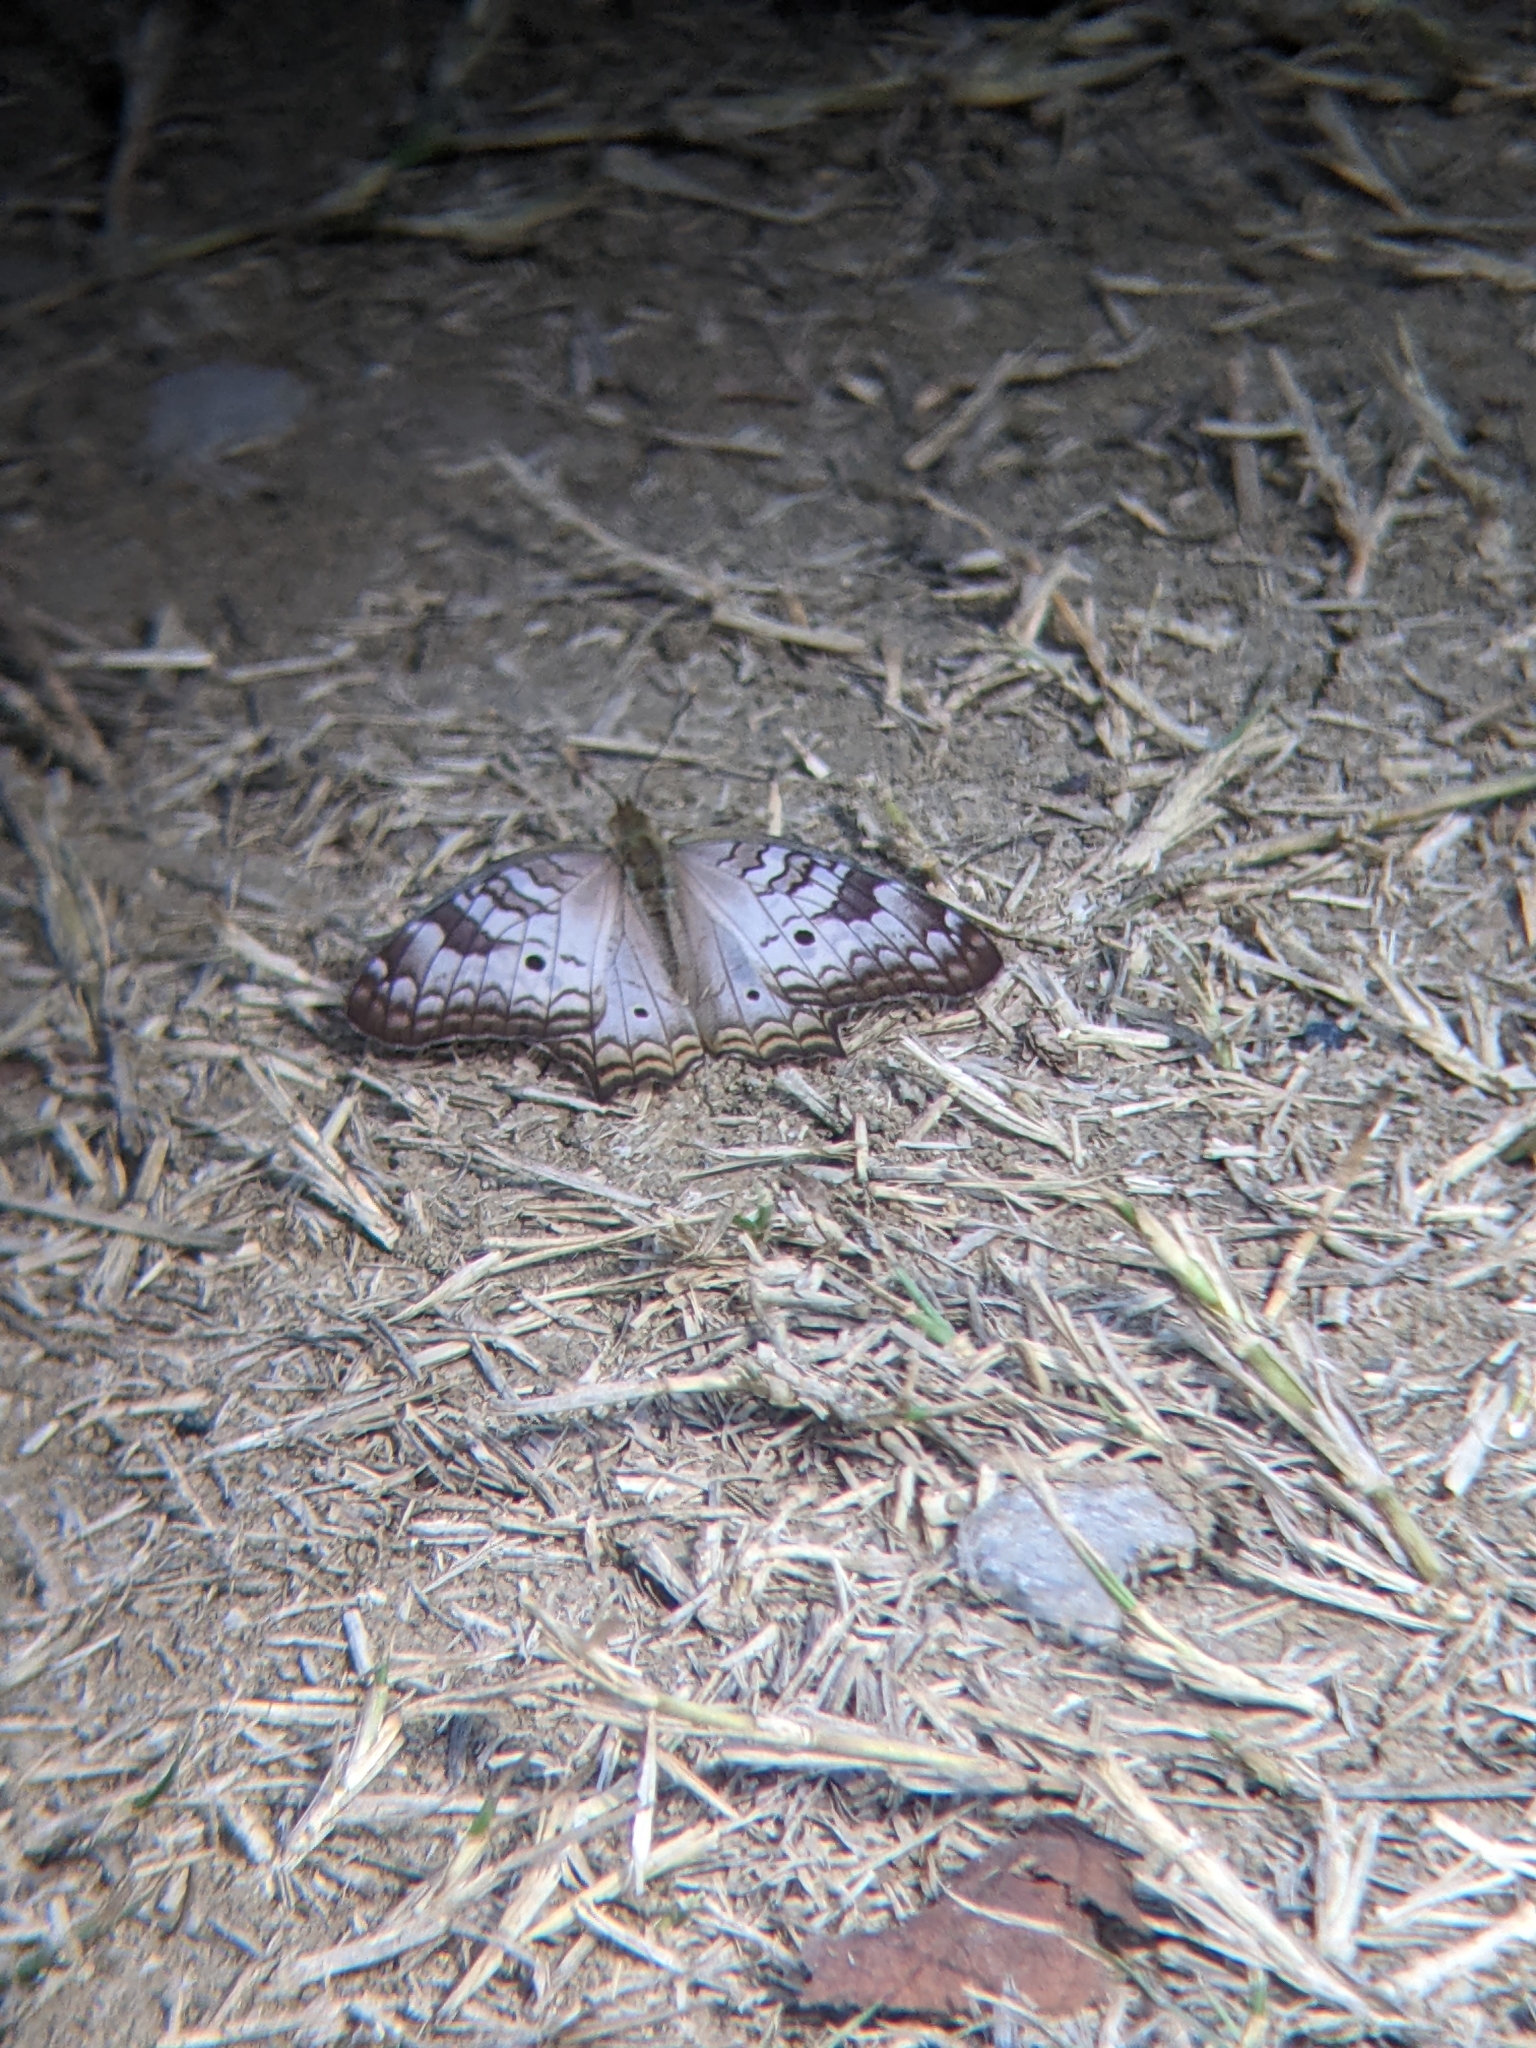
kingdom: Animalia
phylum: Arthropoda
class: Insecta
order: Lepidoptera
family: Nymphalidae
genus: Anartia
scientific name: Anartia jatrophae
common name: White peacock
